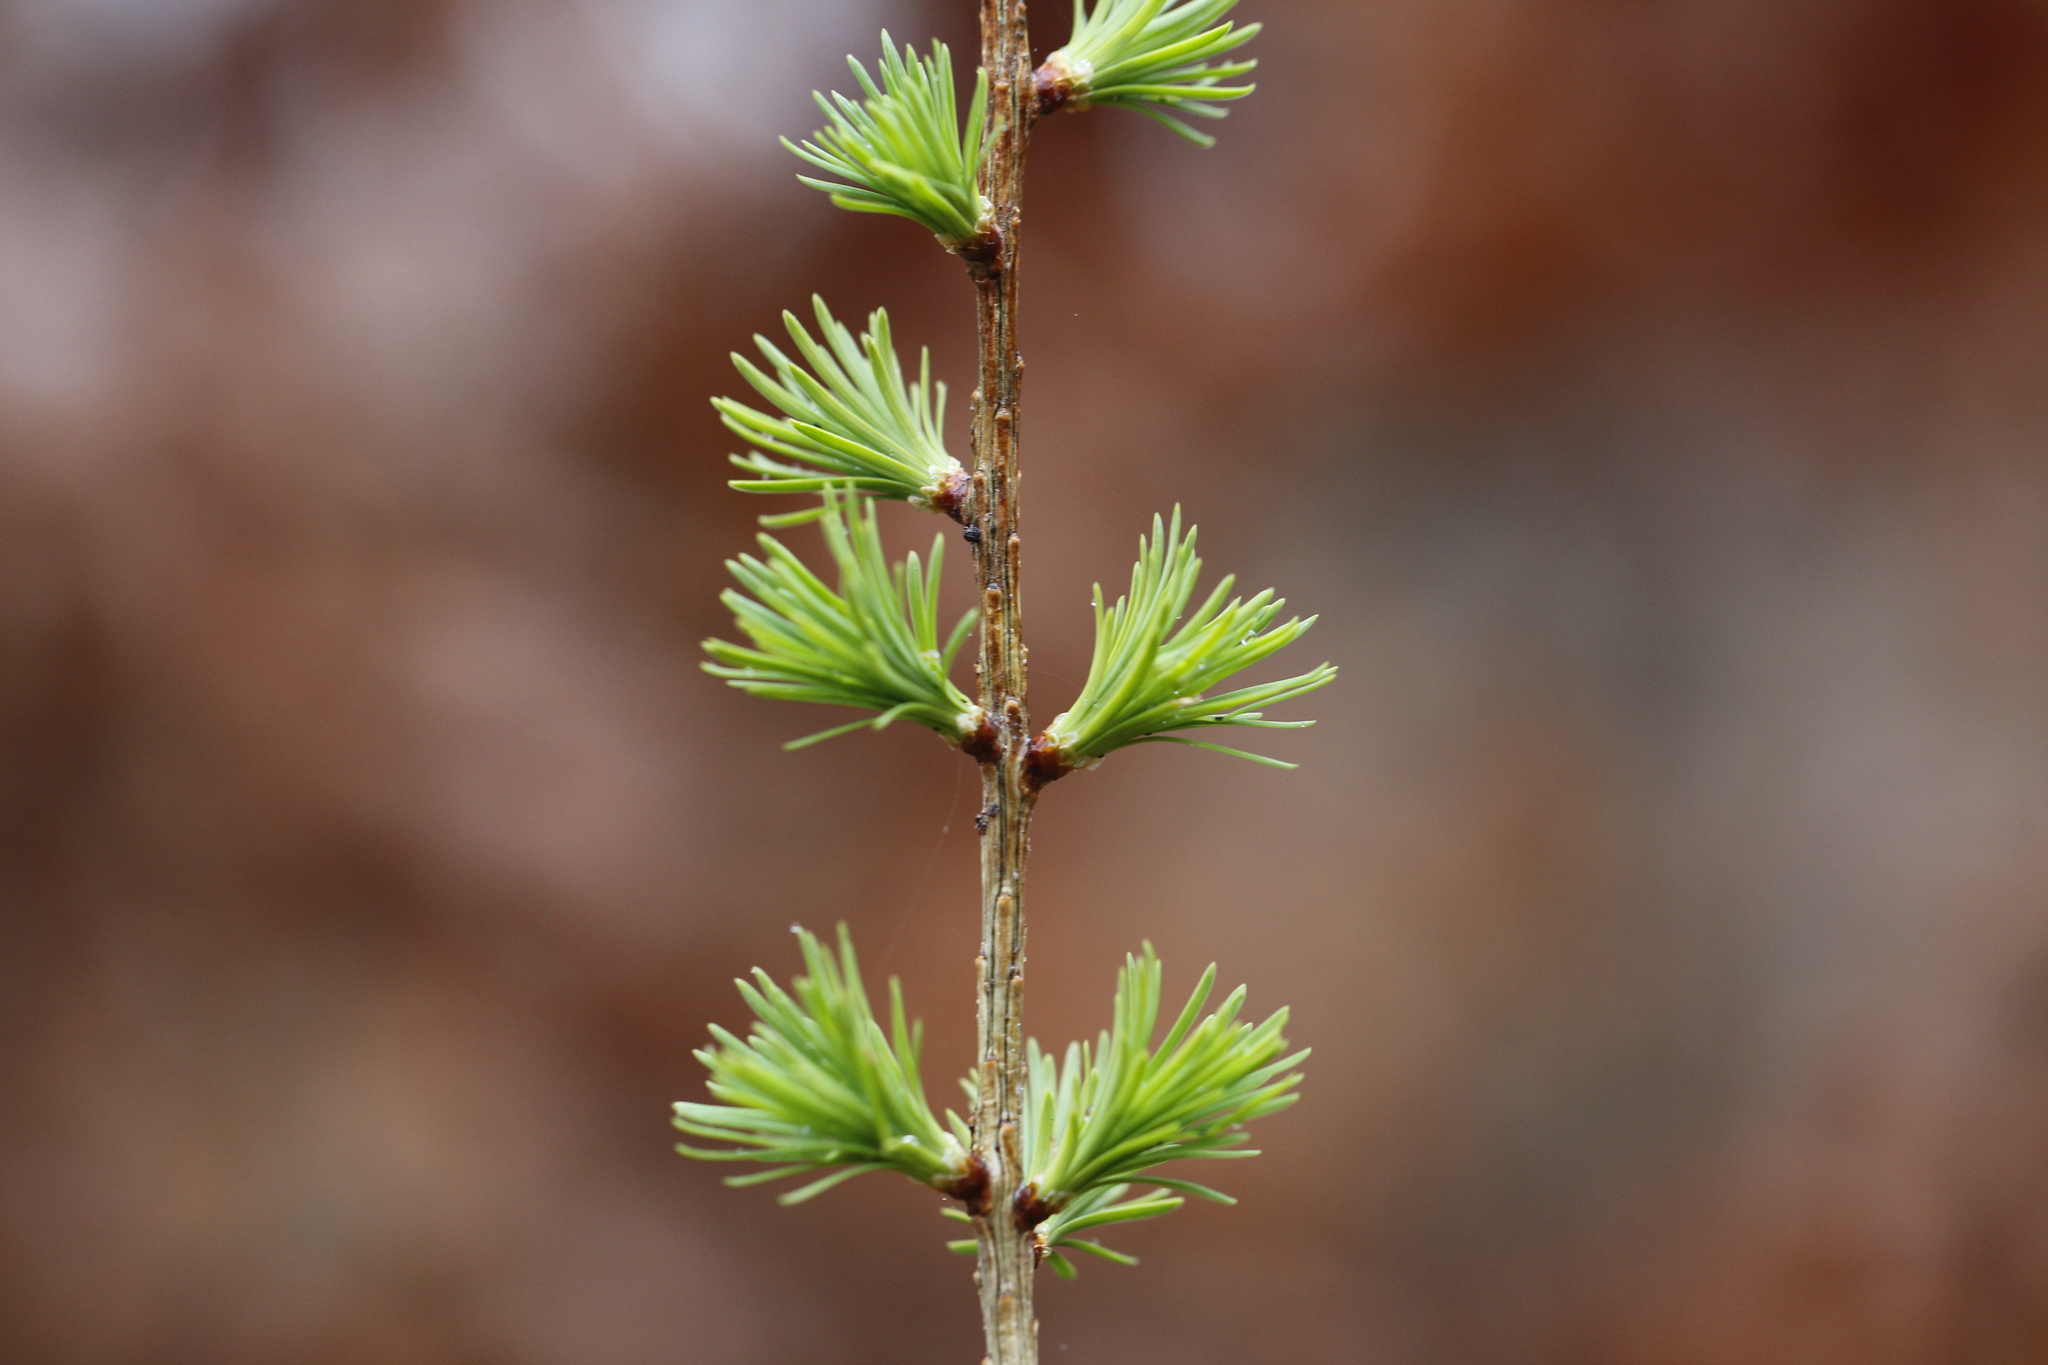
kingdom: Plantae
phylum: Tracheophyta
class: Pinopsida
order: Pinales
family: Pinaceae
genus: Larix
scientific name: Larix decidua
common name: European larch
